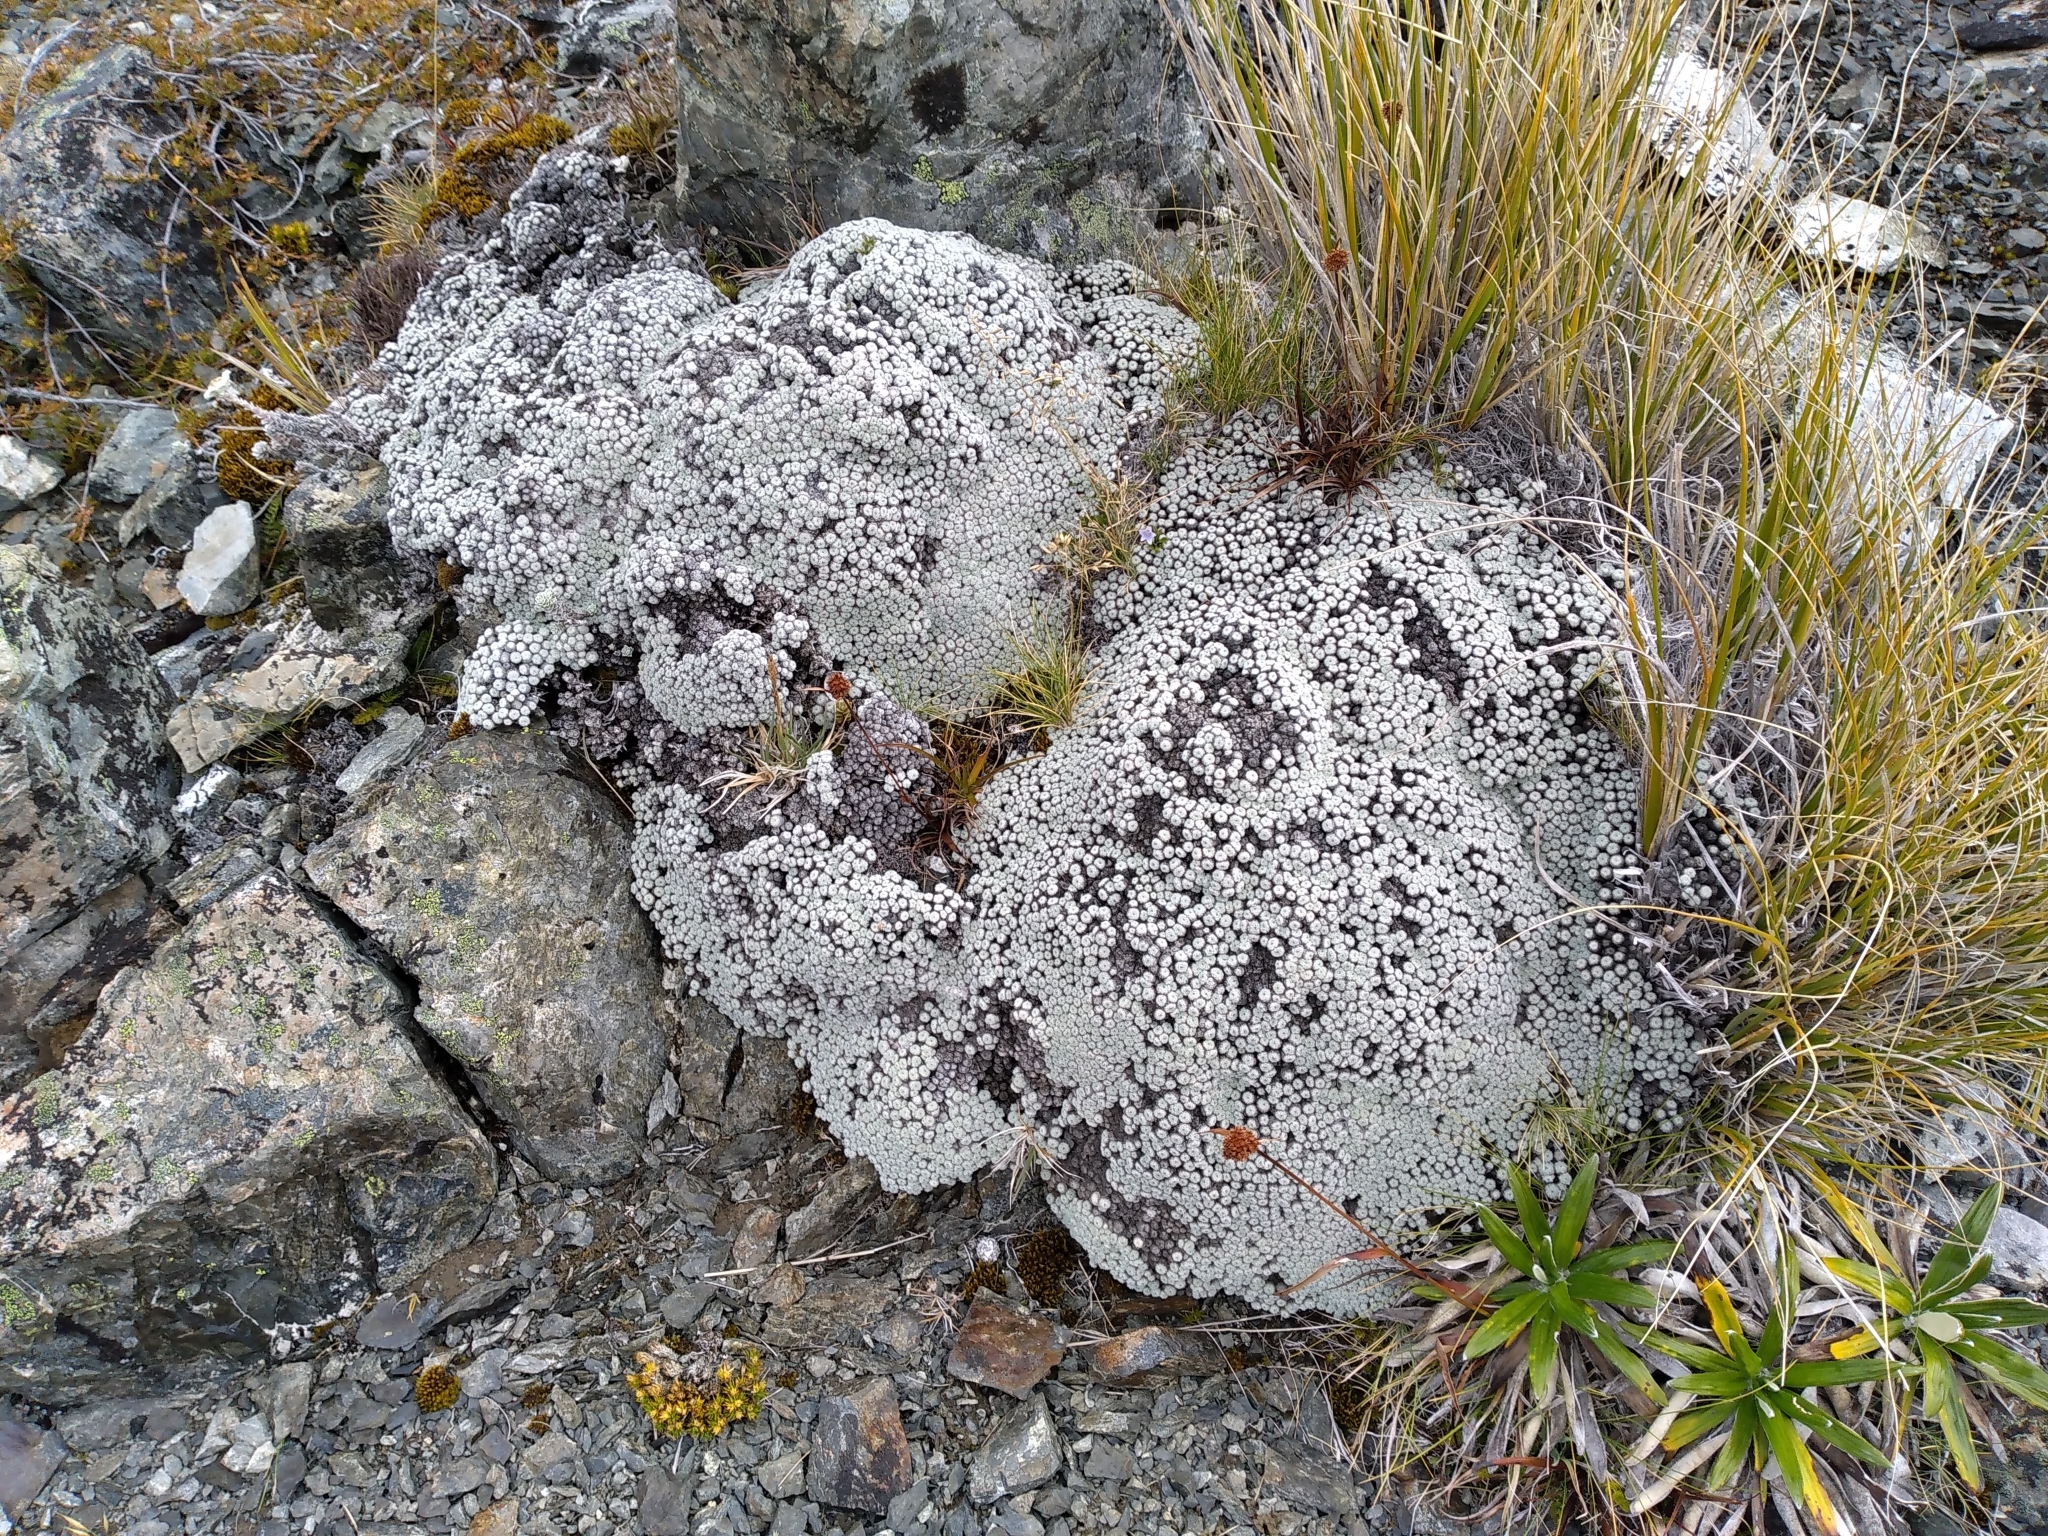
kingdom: Plantae
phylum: Tracheophyta
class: Magnoliopsida
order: Asterales
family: Asteraceae
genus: Raoulia
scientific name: Raoulia mammillaris
